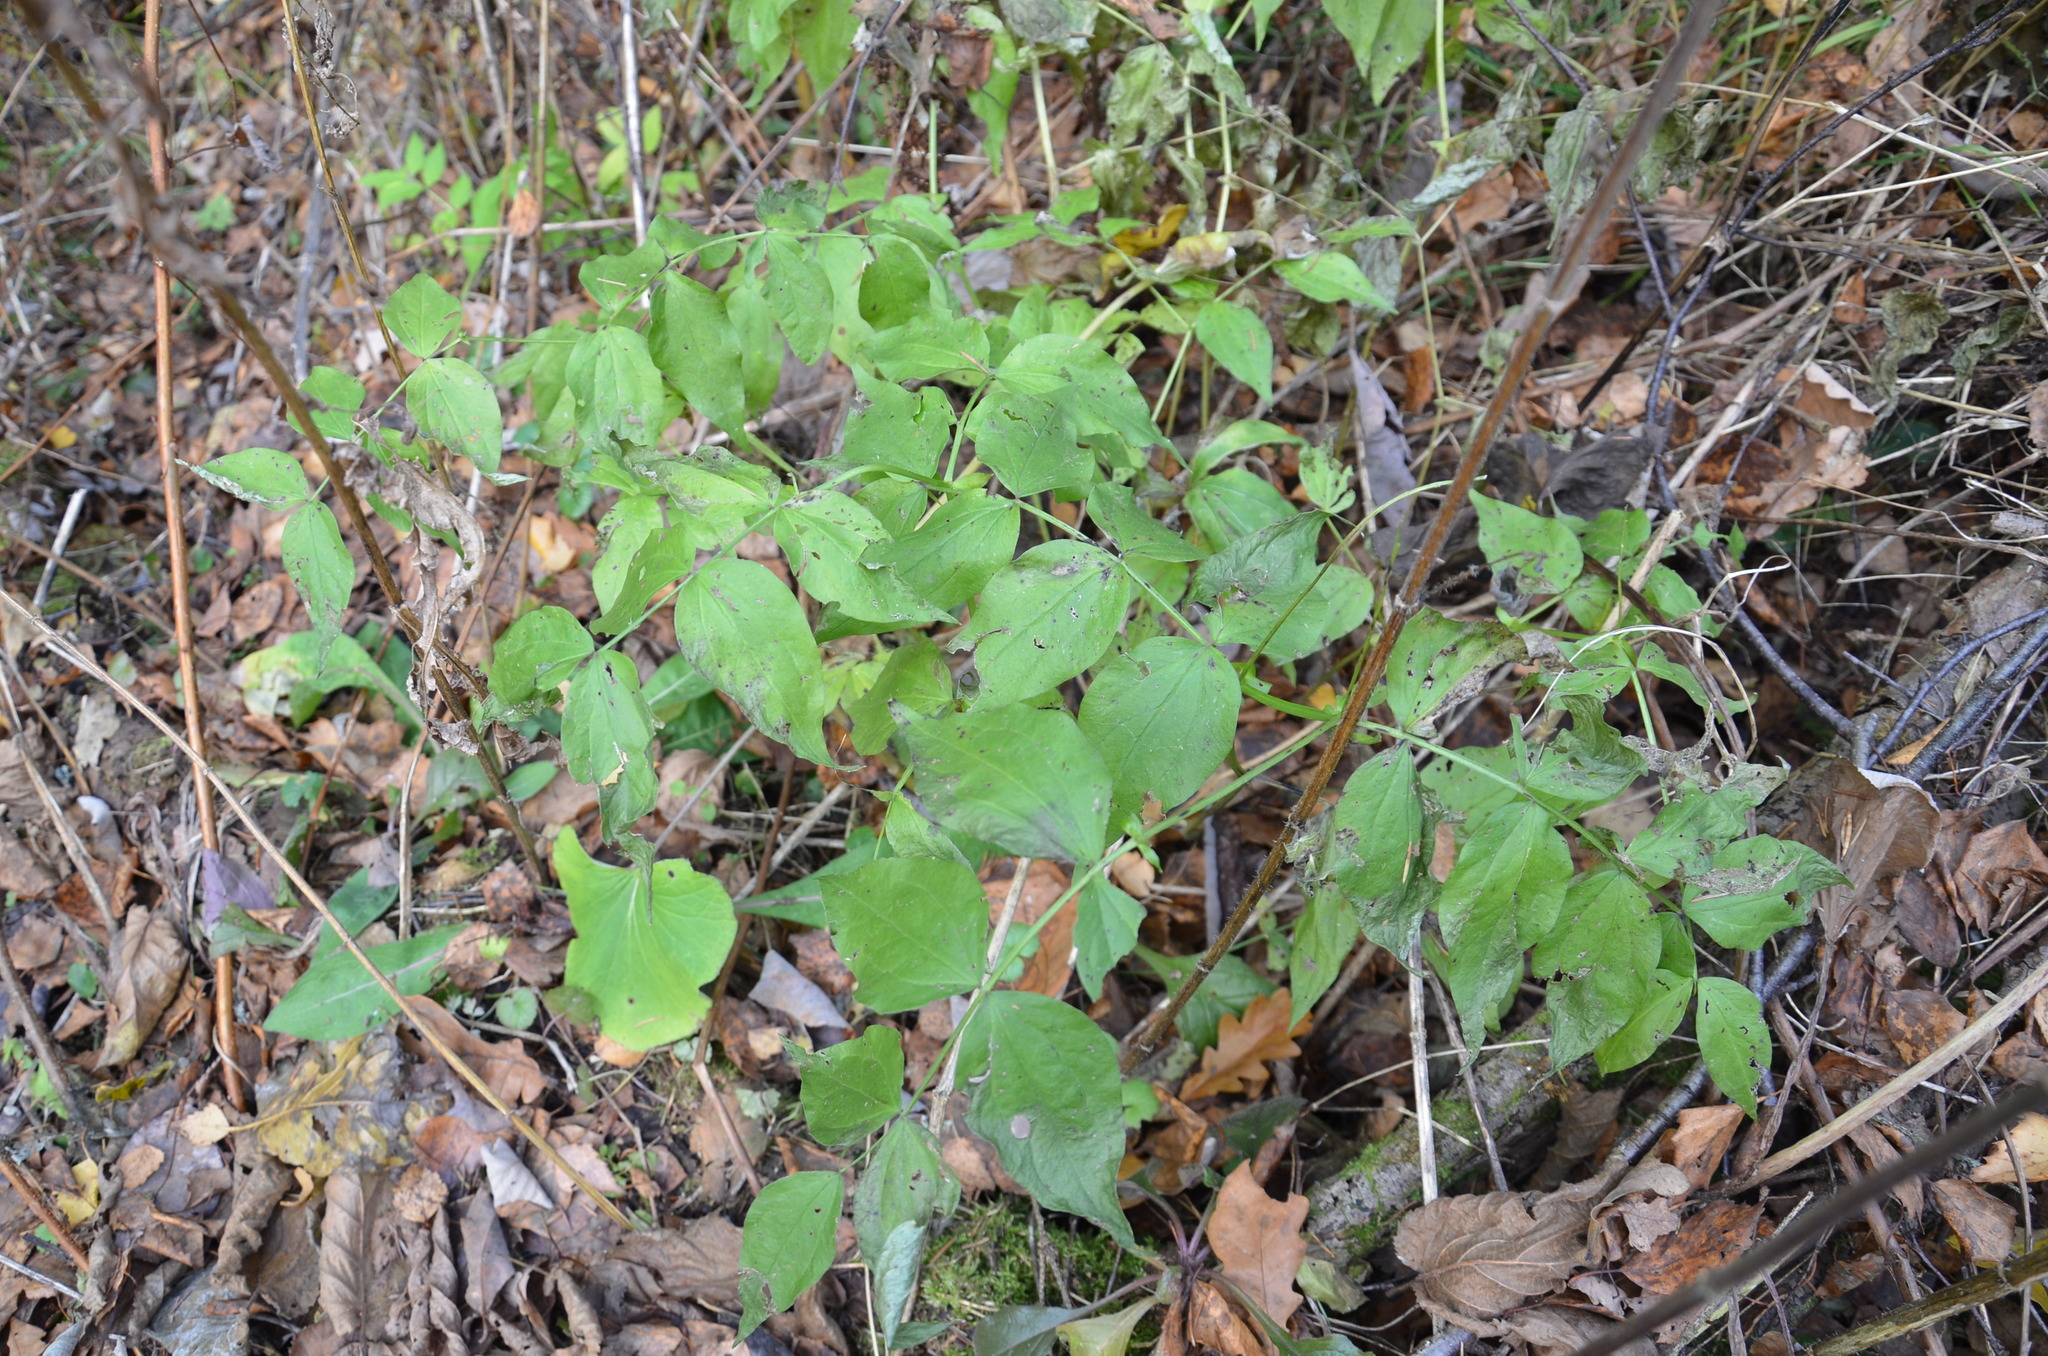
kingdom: Plantae
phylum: Tracheophyta
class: Magnoliopsida
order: Fabales
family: Fabaceae
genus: Lathyrus
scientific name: Lathyrus vernus
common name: Spring pea
